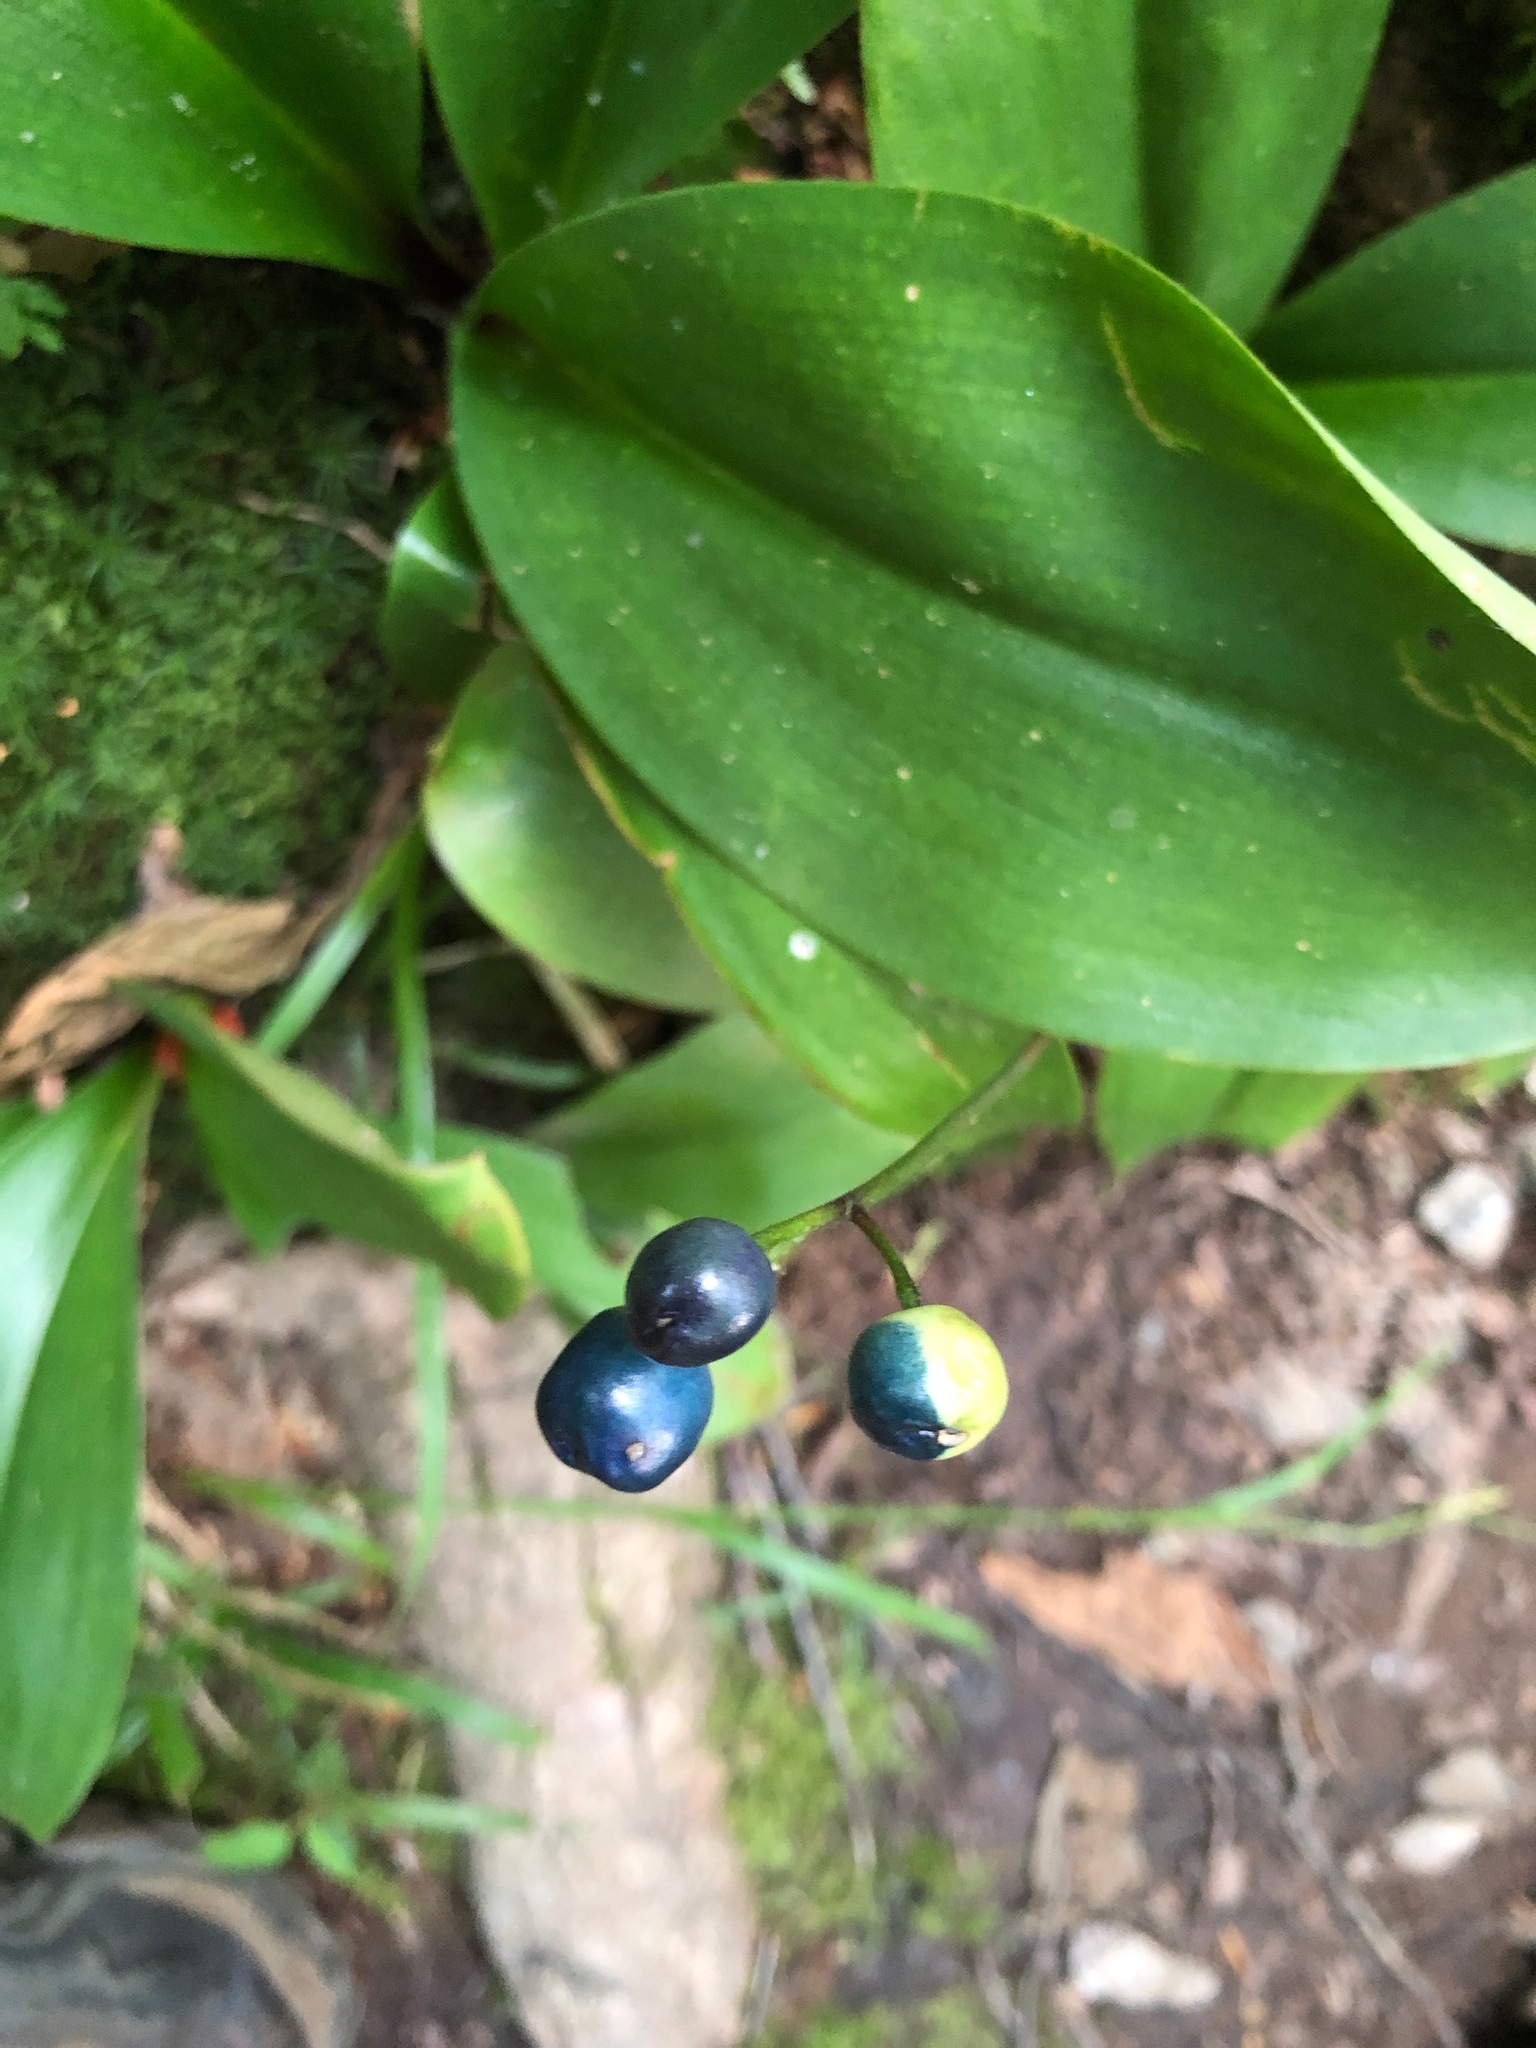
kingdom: Plantae
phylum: Tracheophyta
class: Liliopsida
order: Liliales
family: Liliaceae
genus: Clintonia
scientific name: Clintonia borealis
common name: Yellow clintonia
